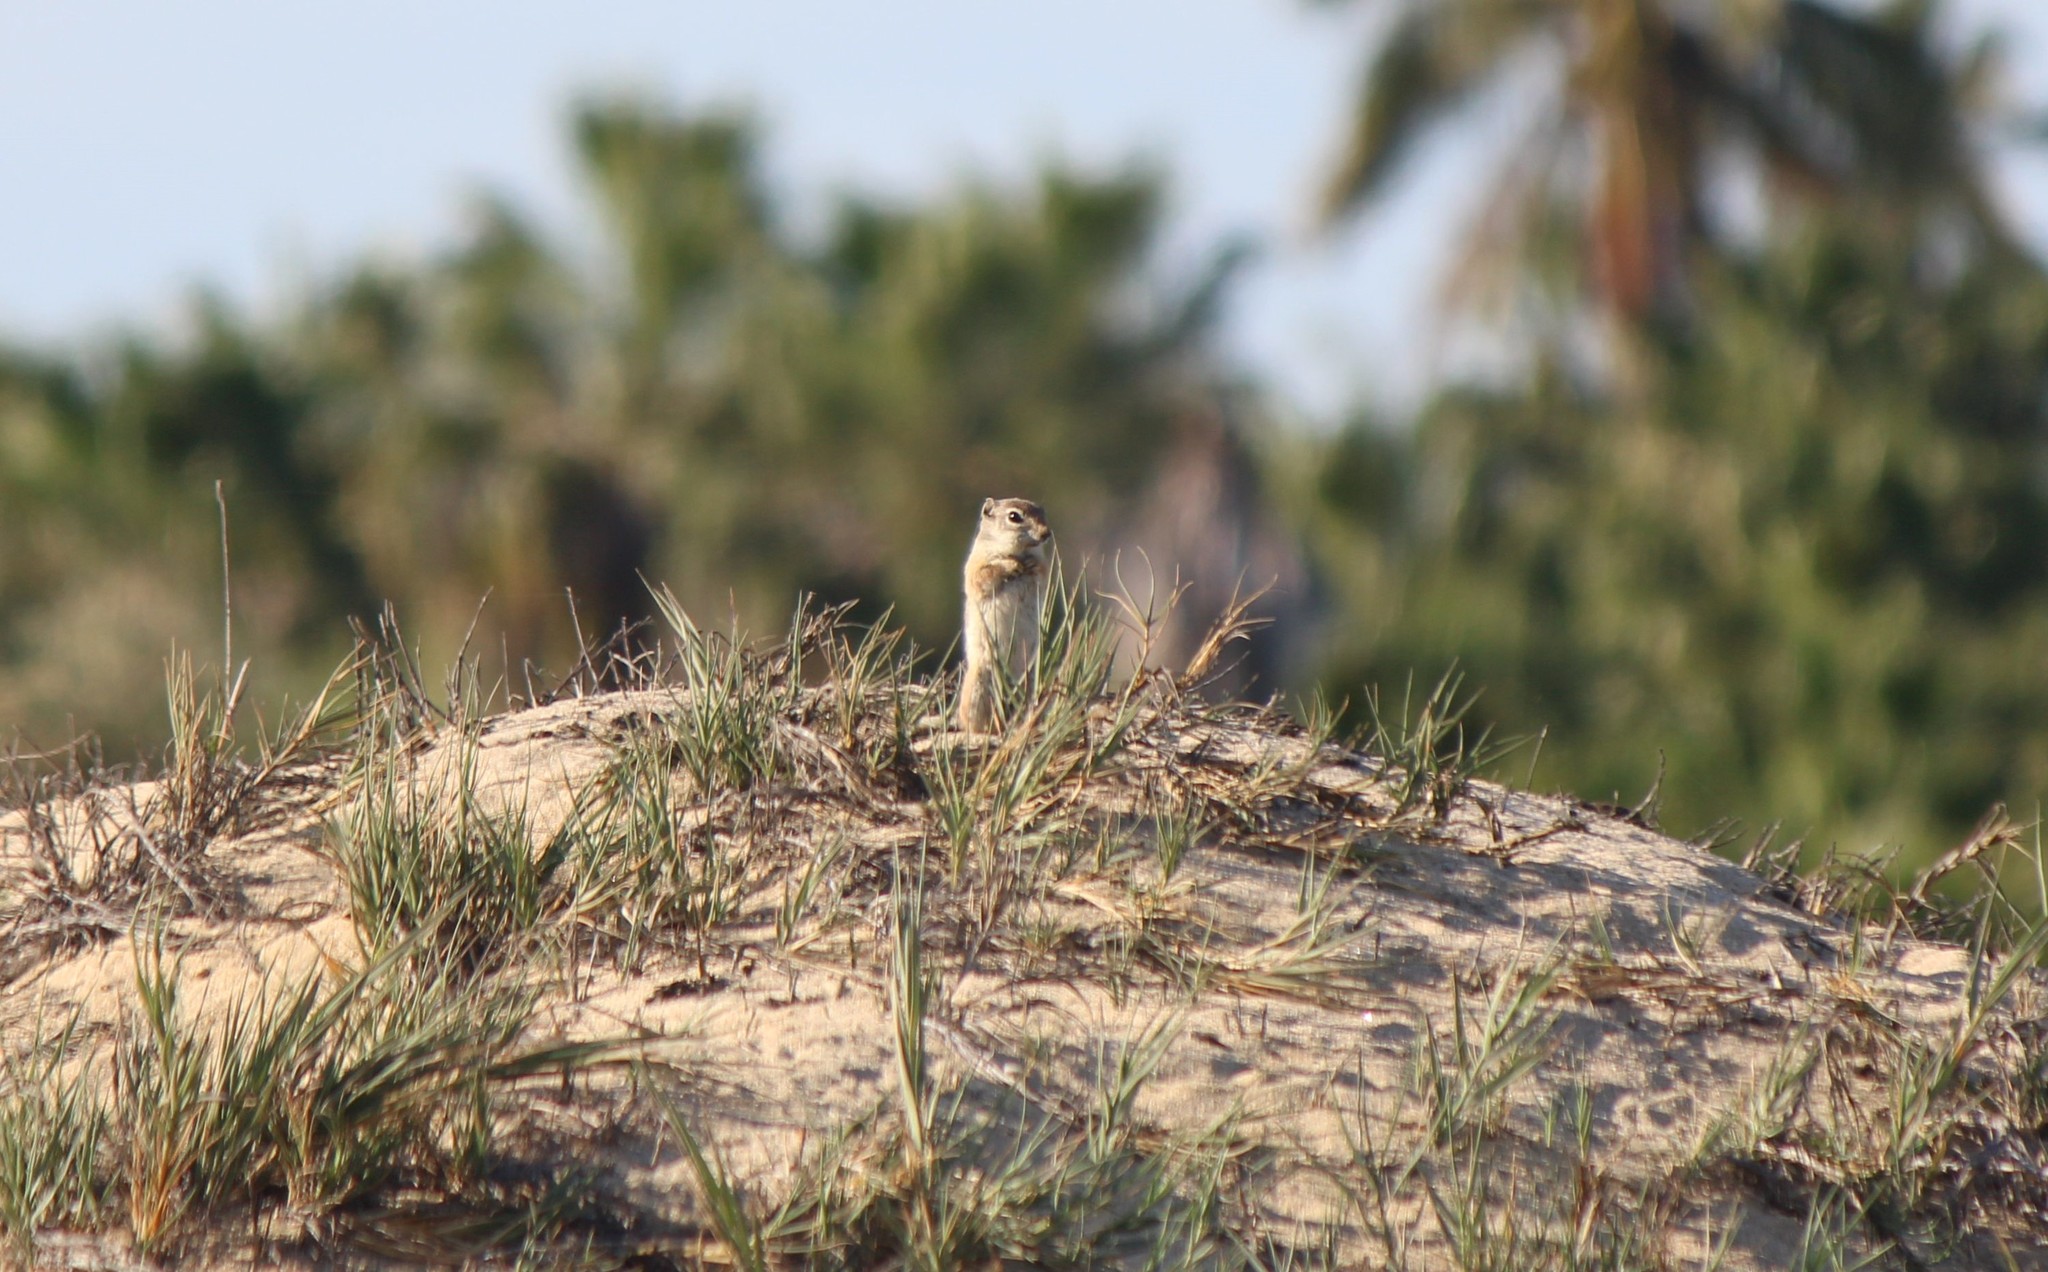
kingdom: Animalia
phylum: Chordata
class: Mammalia
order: Rodentia
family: Sciuridae
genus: Ammospermophilus
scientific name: Ammospermophilus leucurus
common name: White-tailed antelope squirrel
